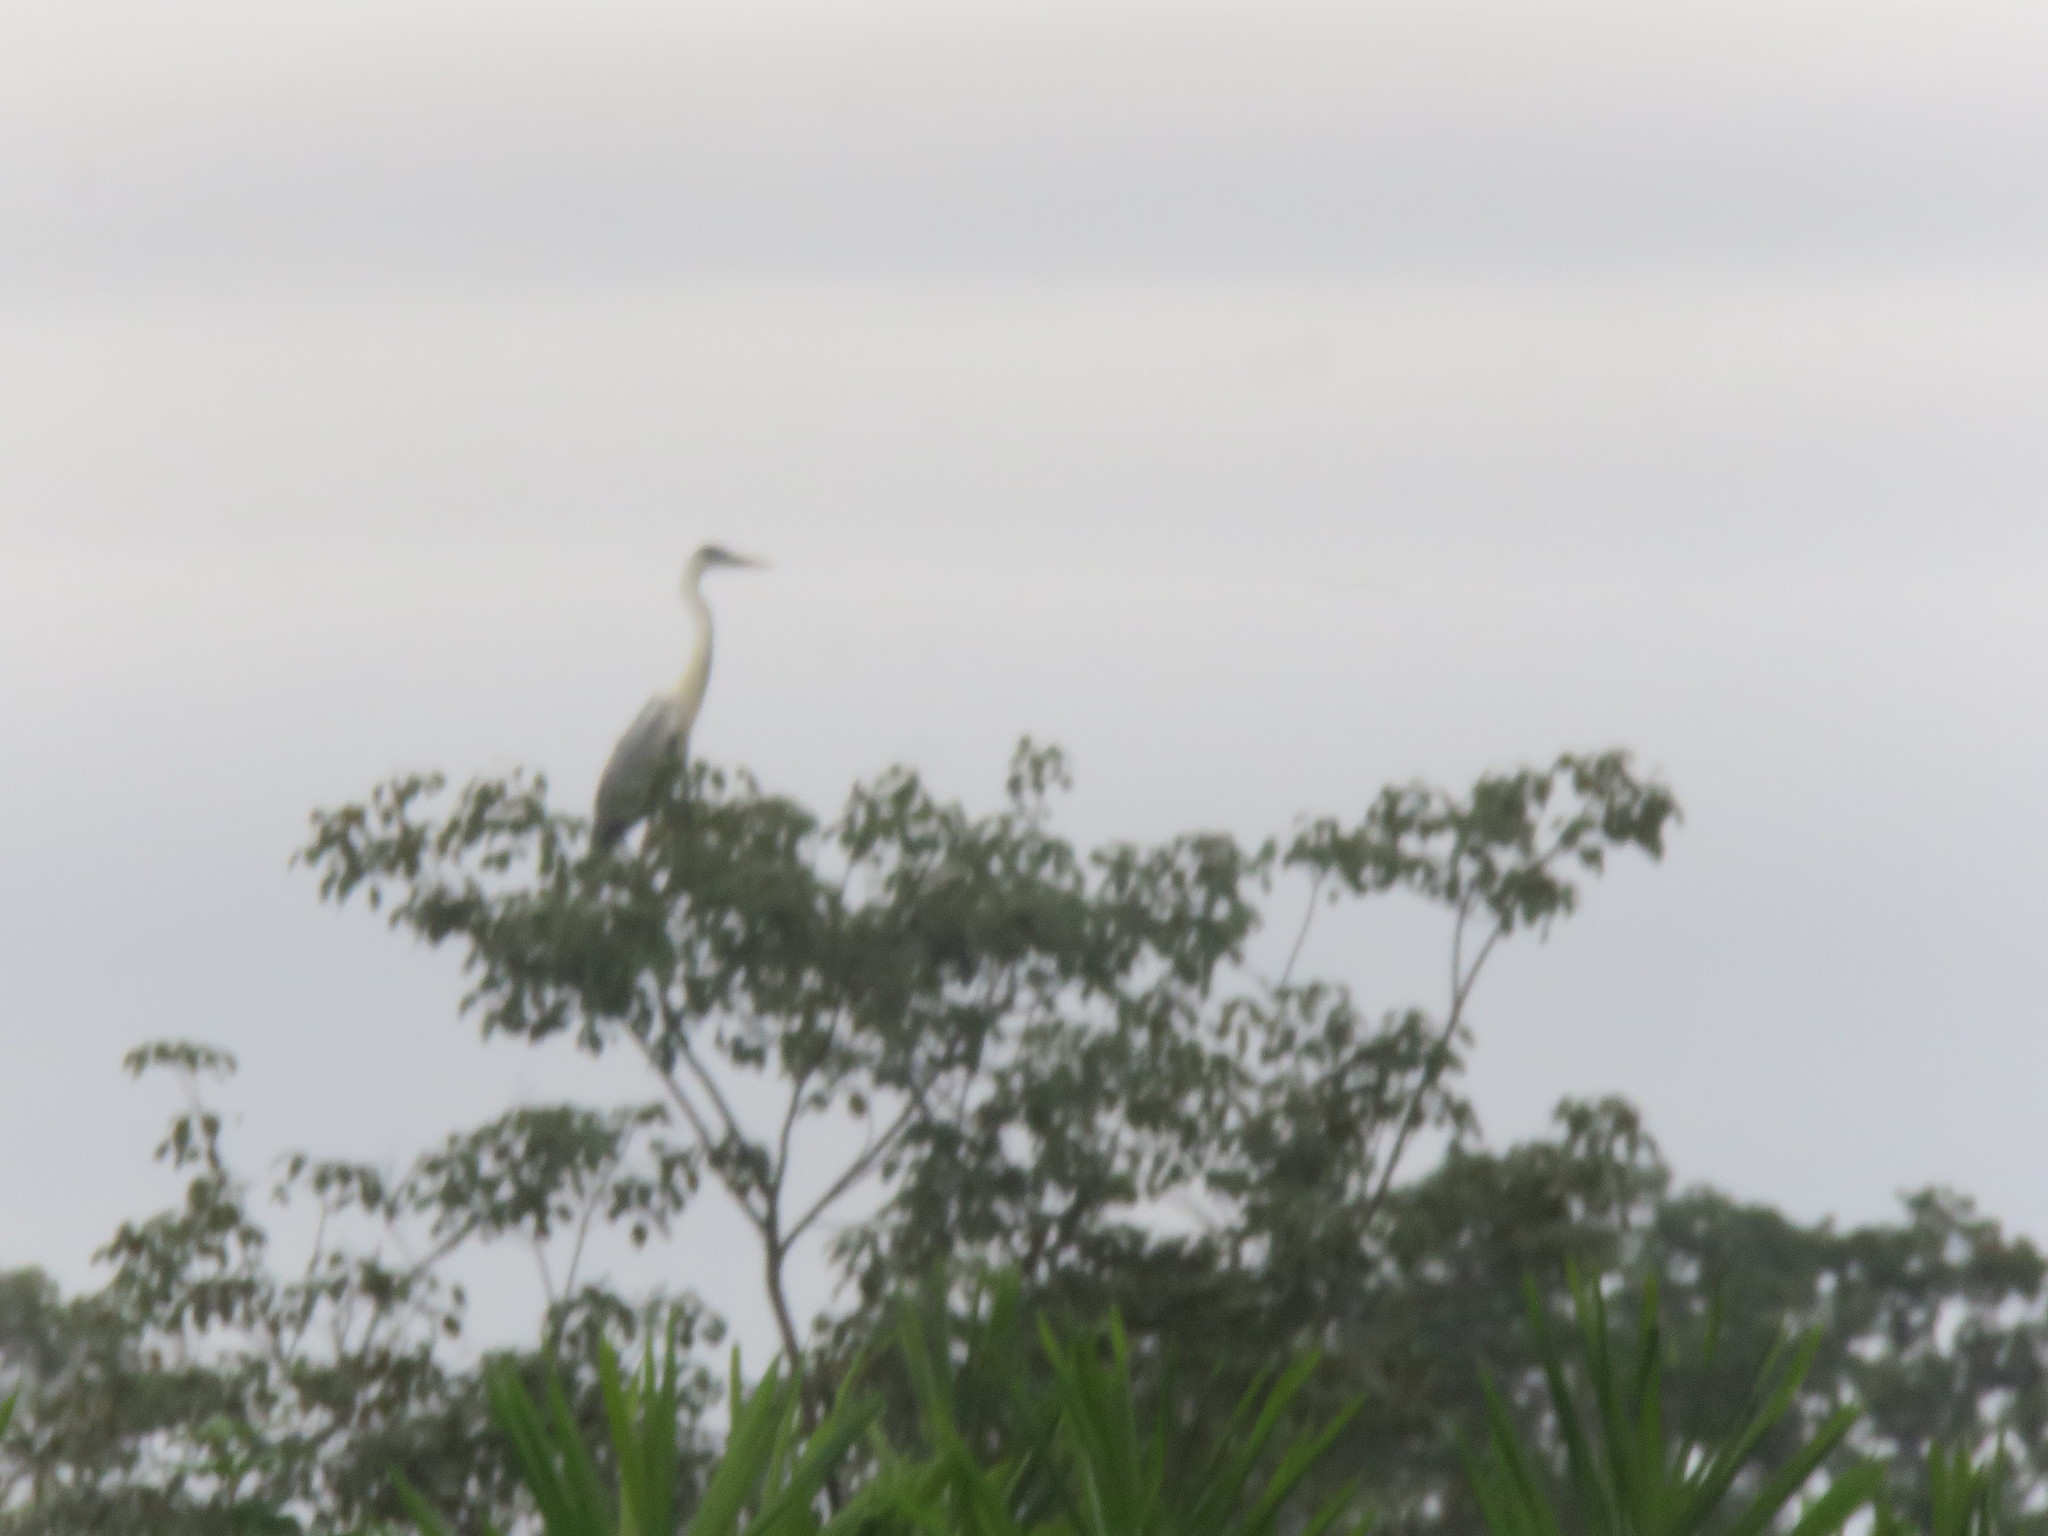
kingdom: Animalia
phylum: Chordata
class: Aves
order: Pelecaniformes
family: Ardeidae
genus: Ardea
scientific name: Ardea cocoi
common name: Cocoi heron
